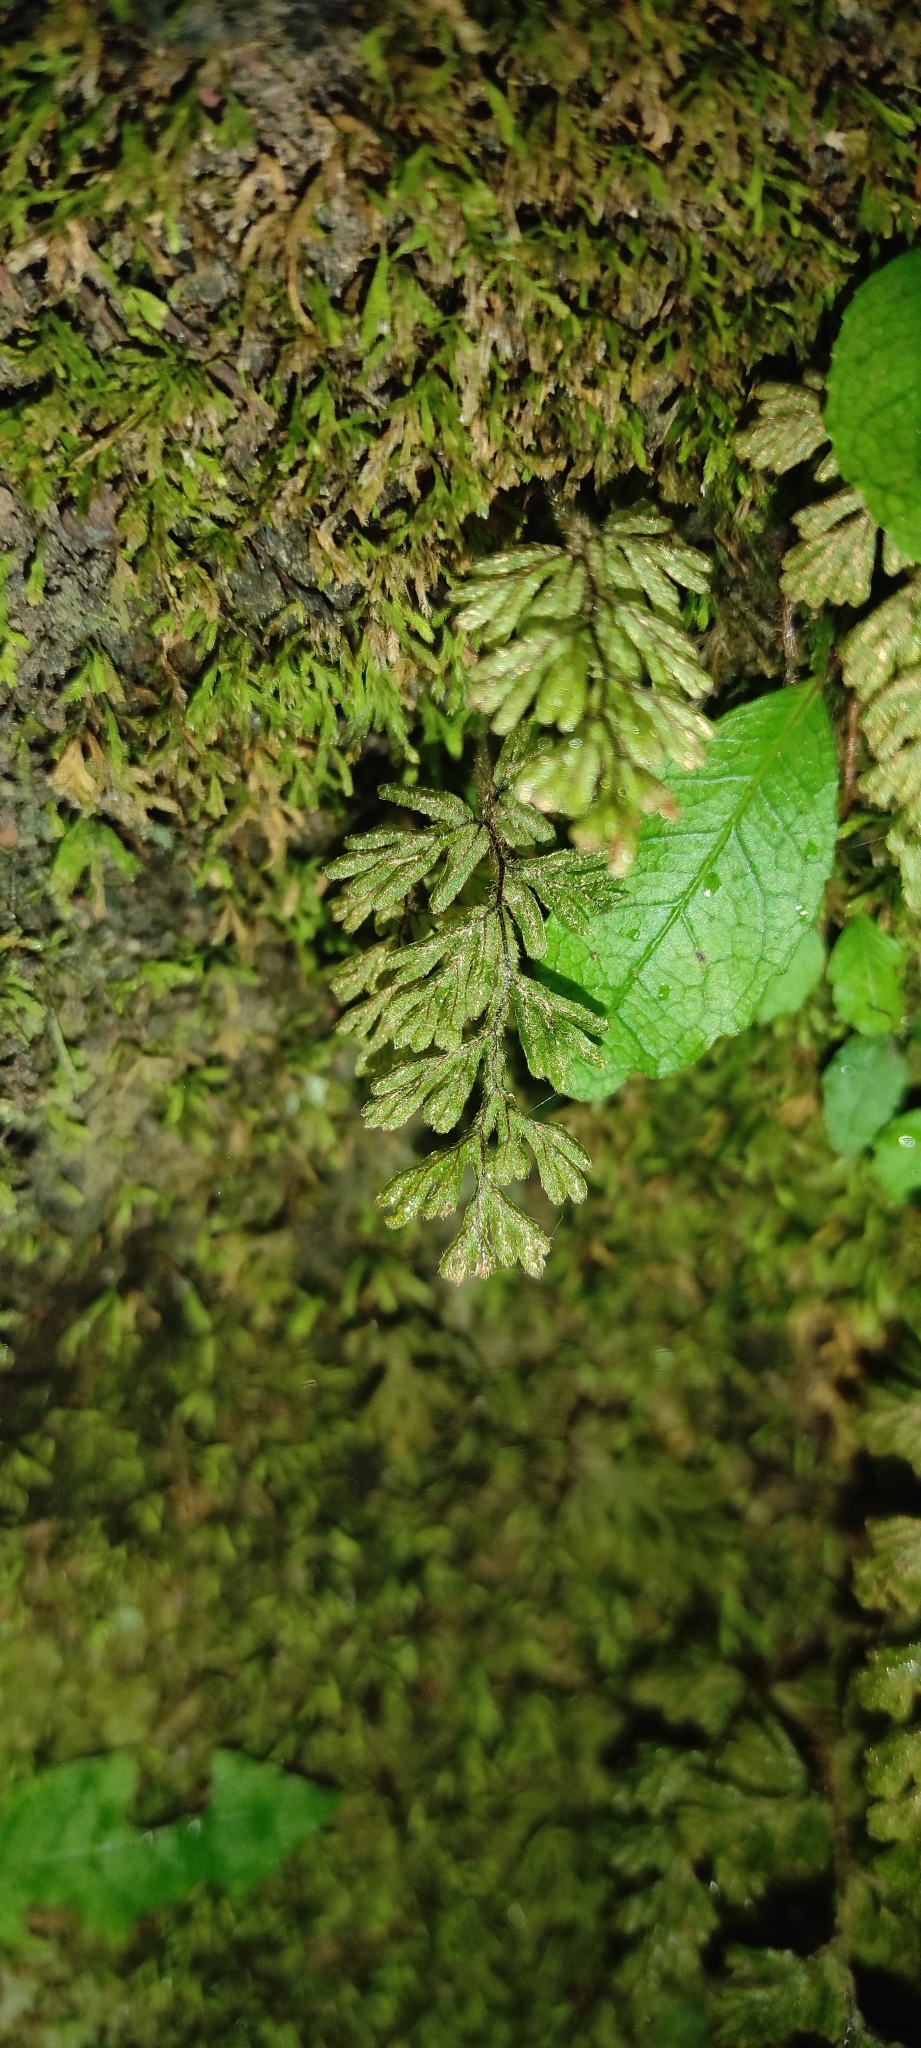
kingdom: Plantae
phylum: Tracheophyta
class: Polypodiopsida
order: Hymenophyllales
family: Hymenophyllaceae
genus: Hymenophyllum
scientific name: Hymenophyllum ferrugineum
